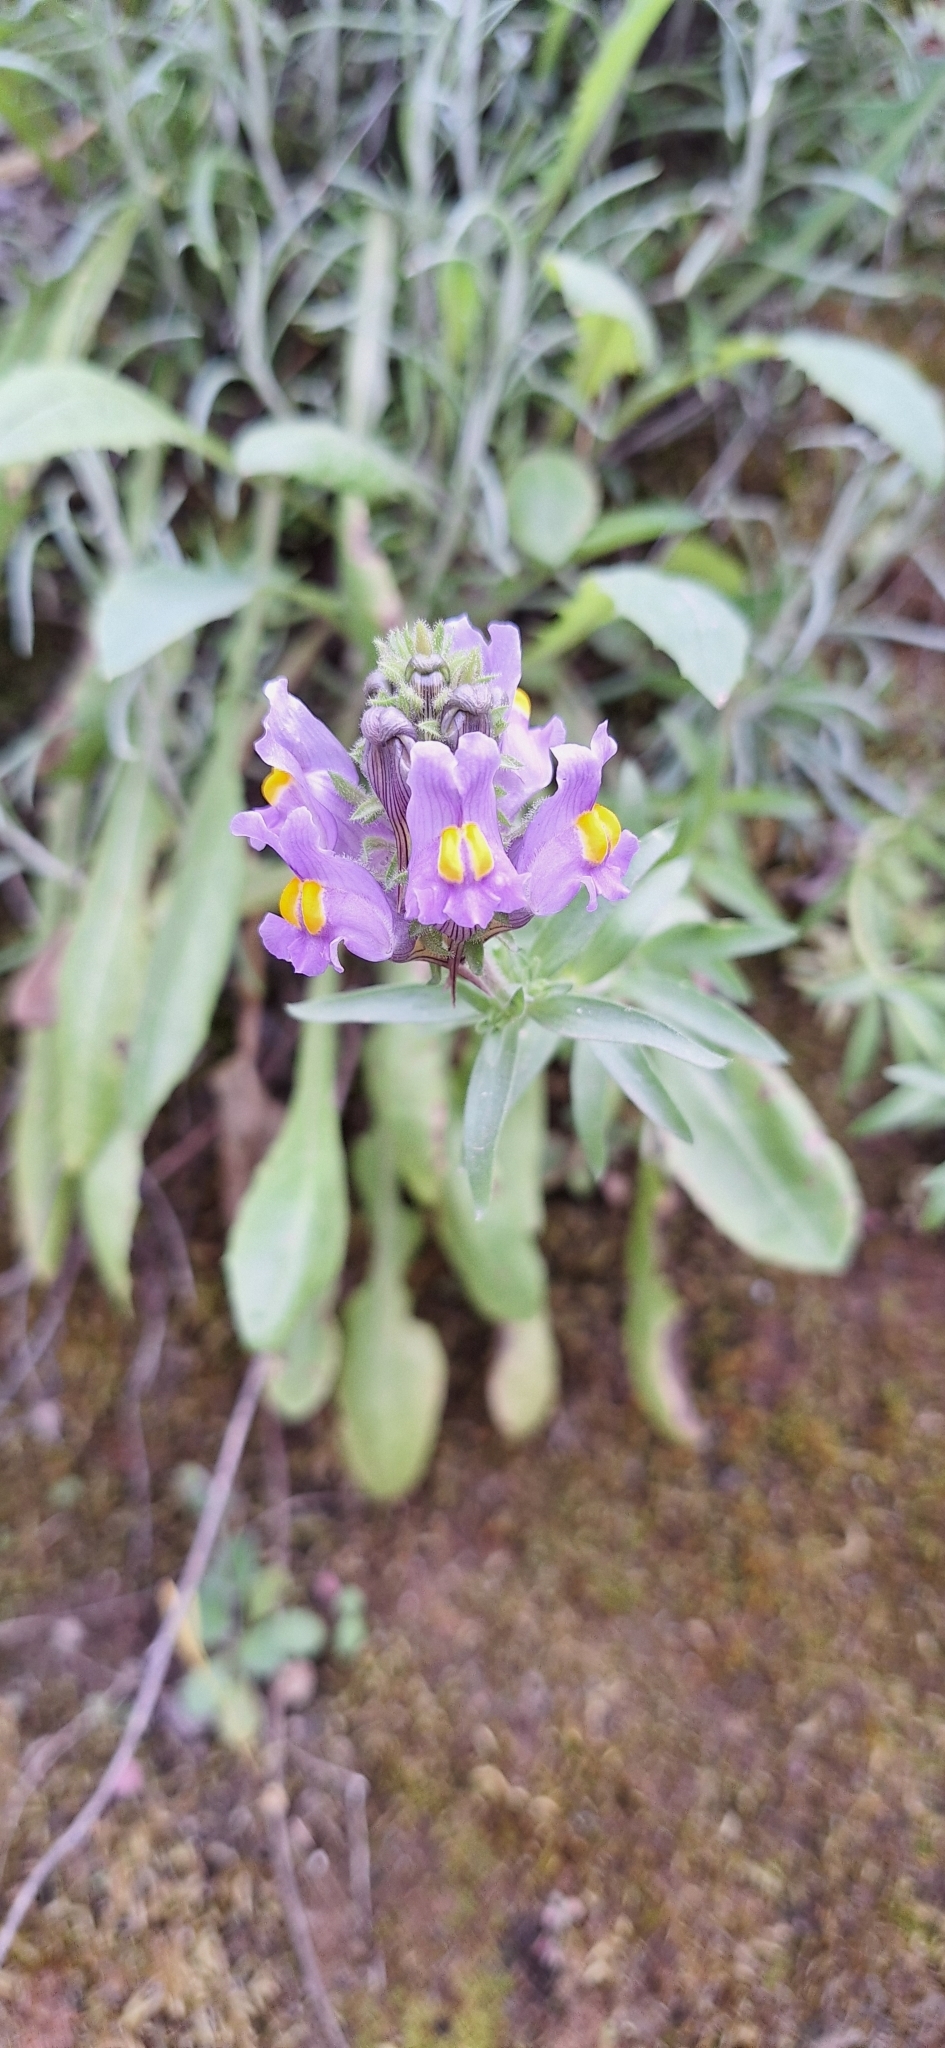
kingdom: Plantae
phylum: Tracheophyta
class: Magnoliopsida
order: Lamiales
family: Plantaginaceae
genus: Linaria
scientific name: Linaria verticillata
